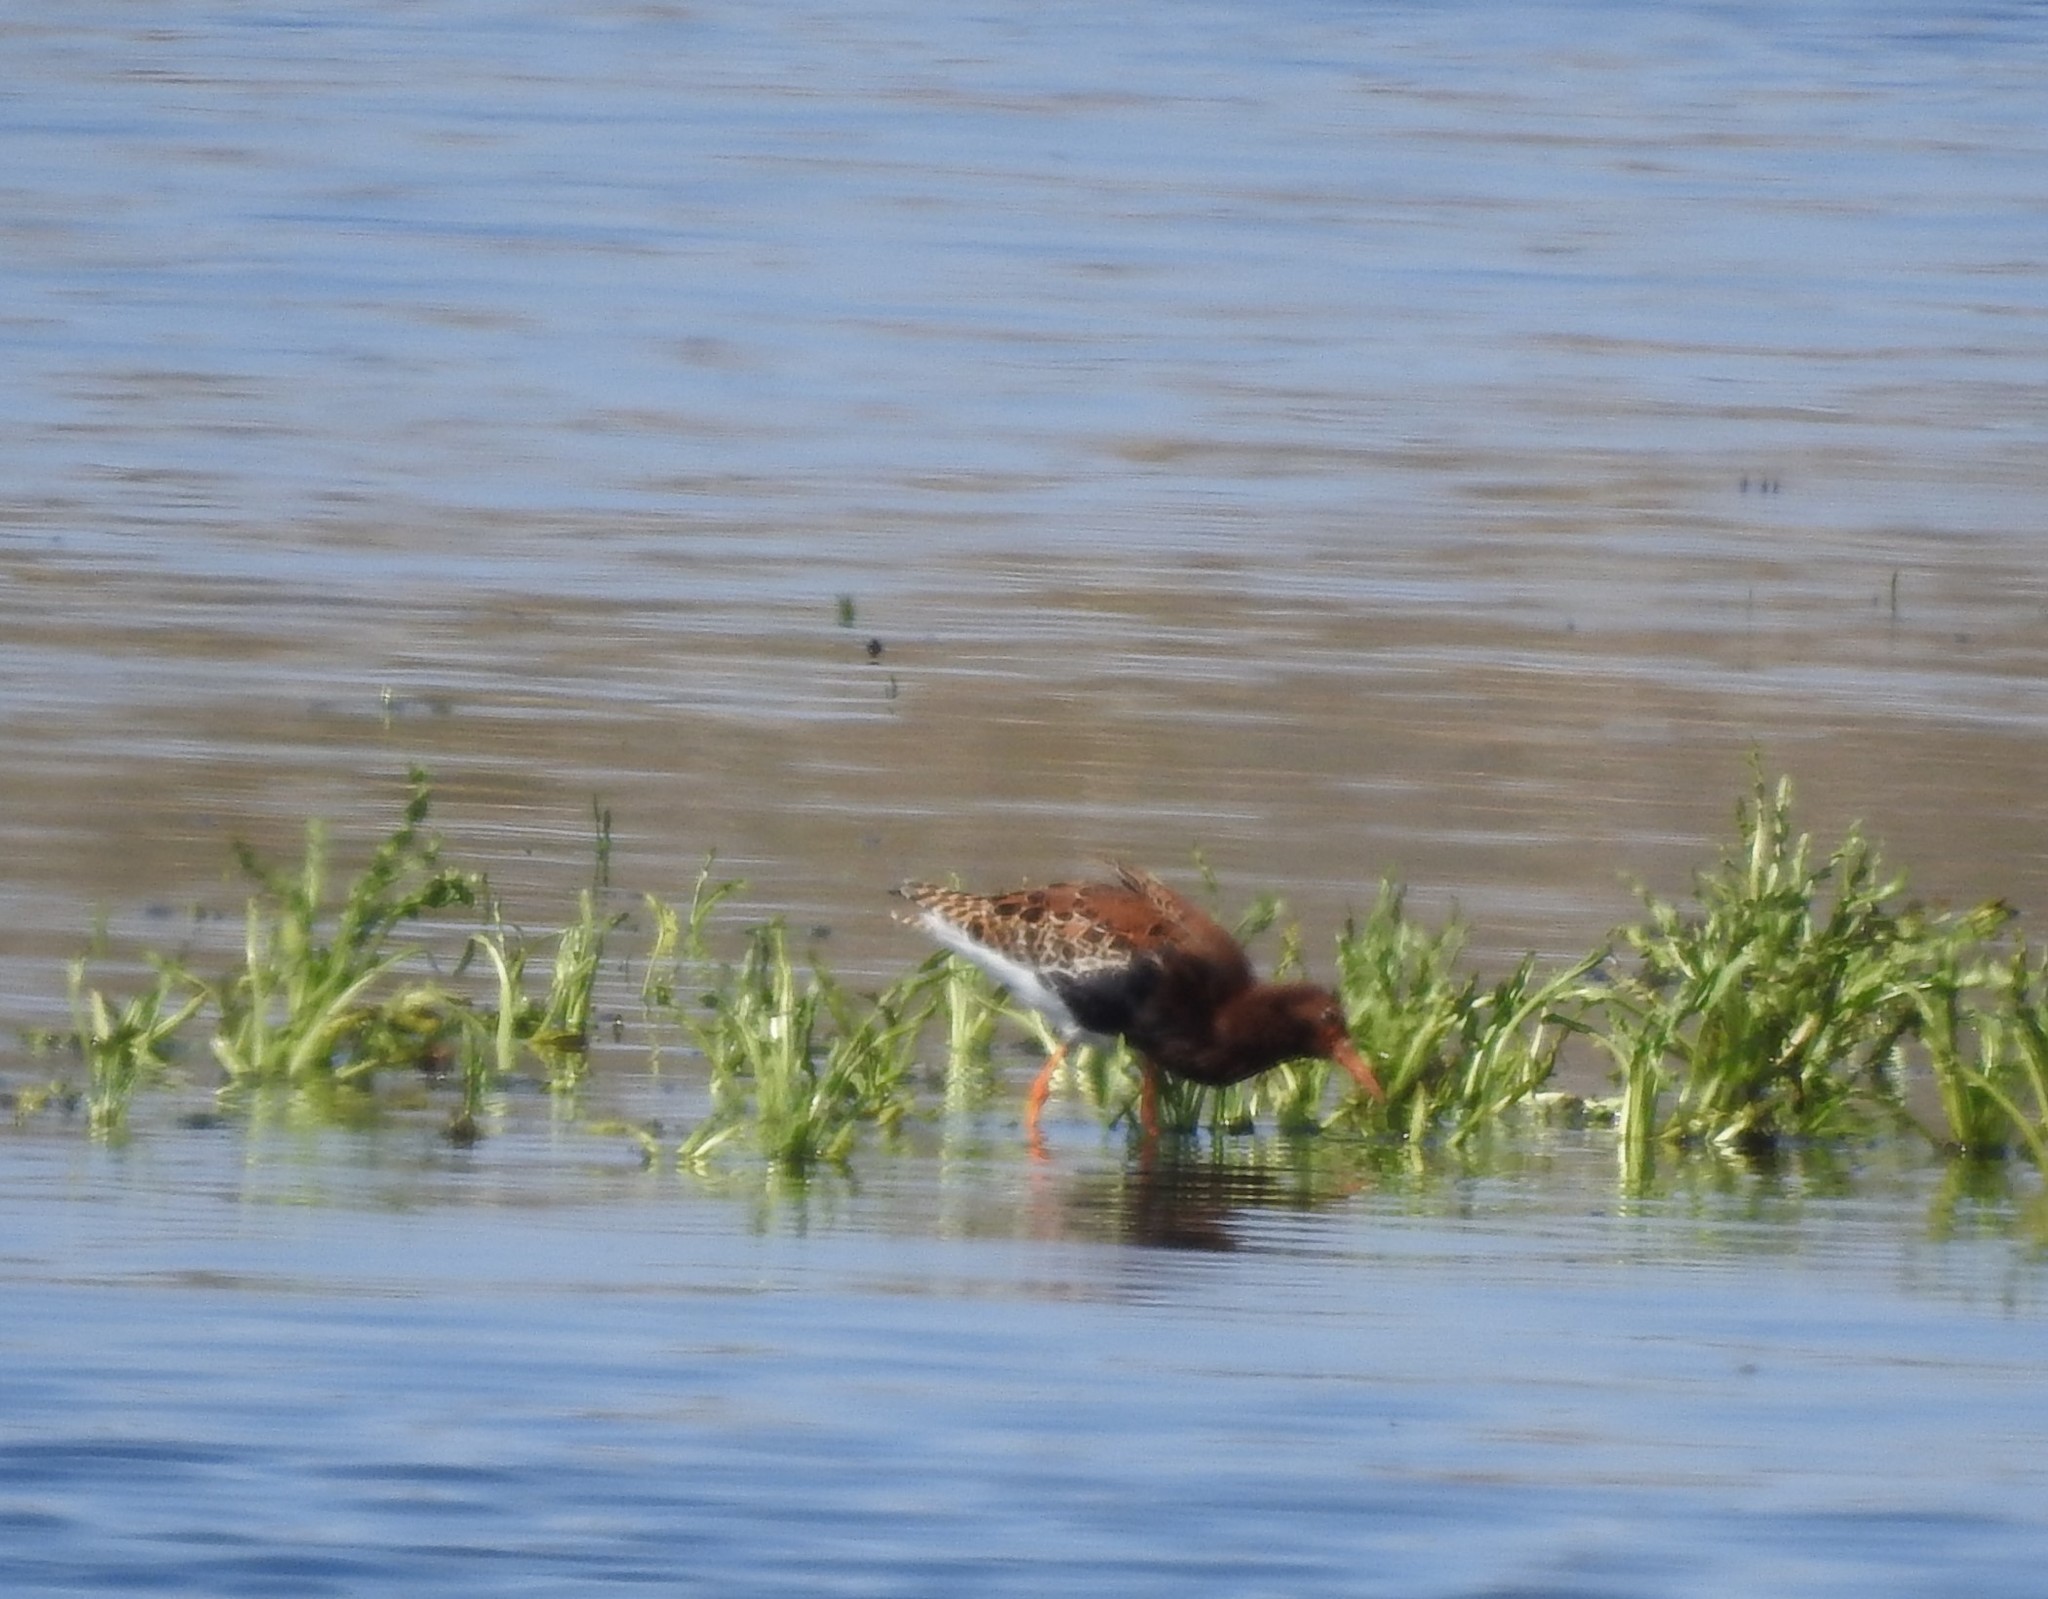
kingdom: Animalia
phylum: Chordata
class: Aves
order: Charadriiformes
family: Scolopacidae
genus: Calidris
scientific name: Calidris pugnax
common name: Ruff
